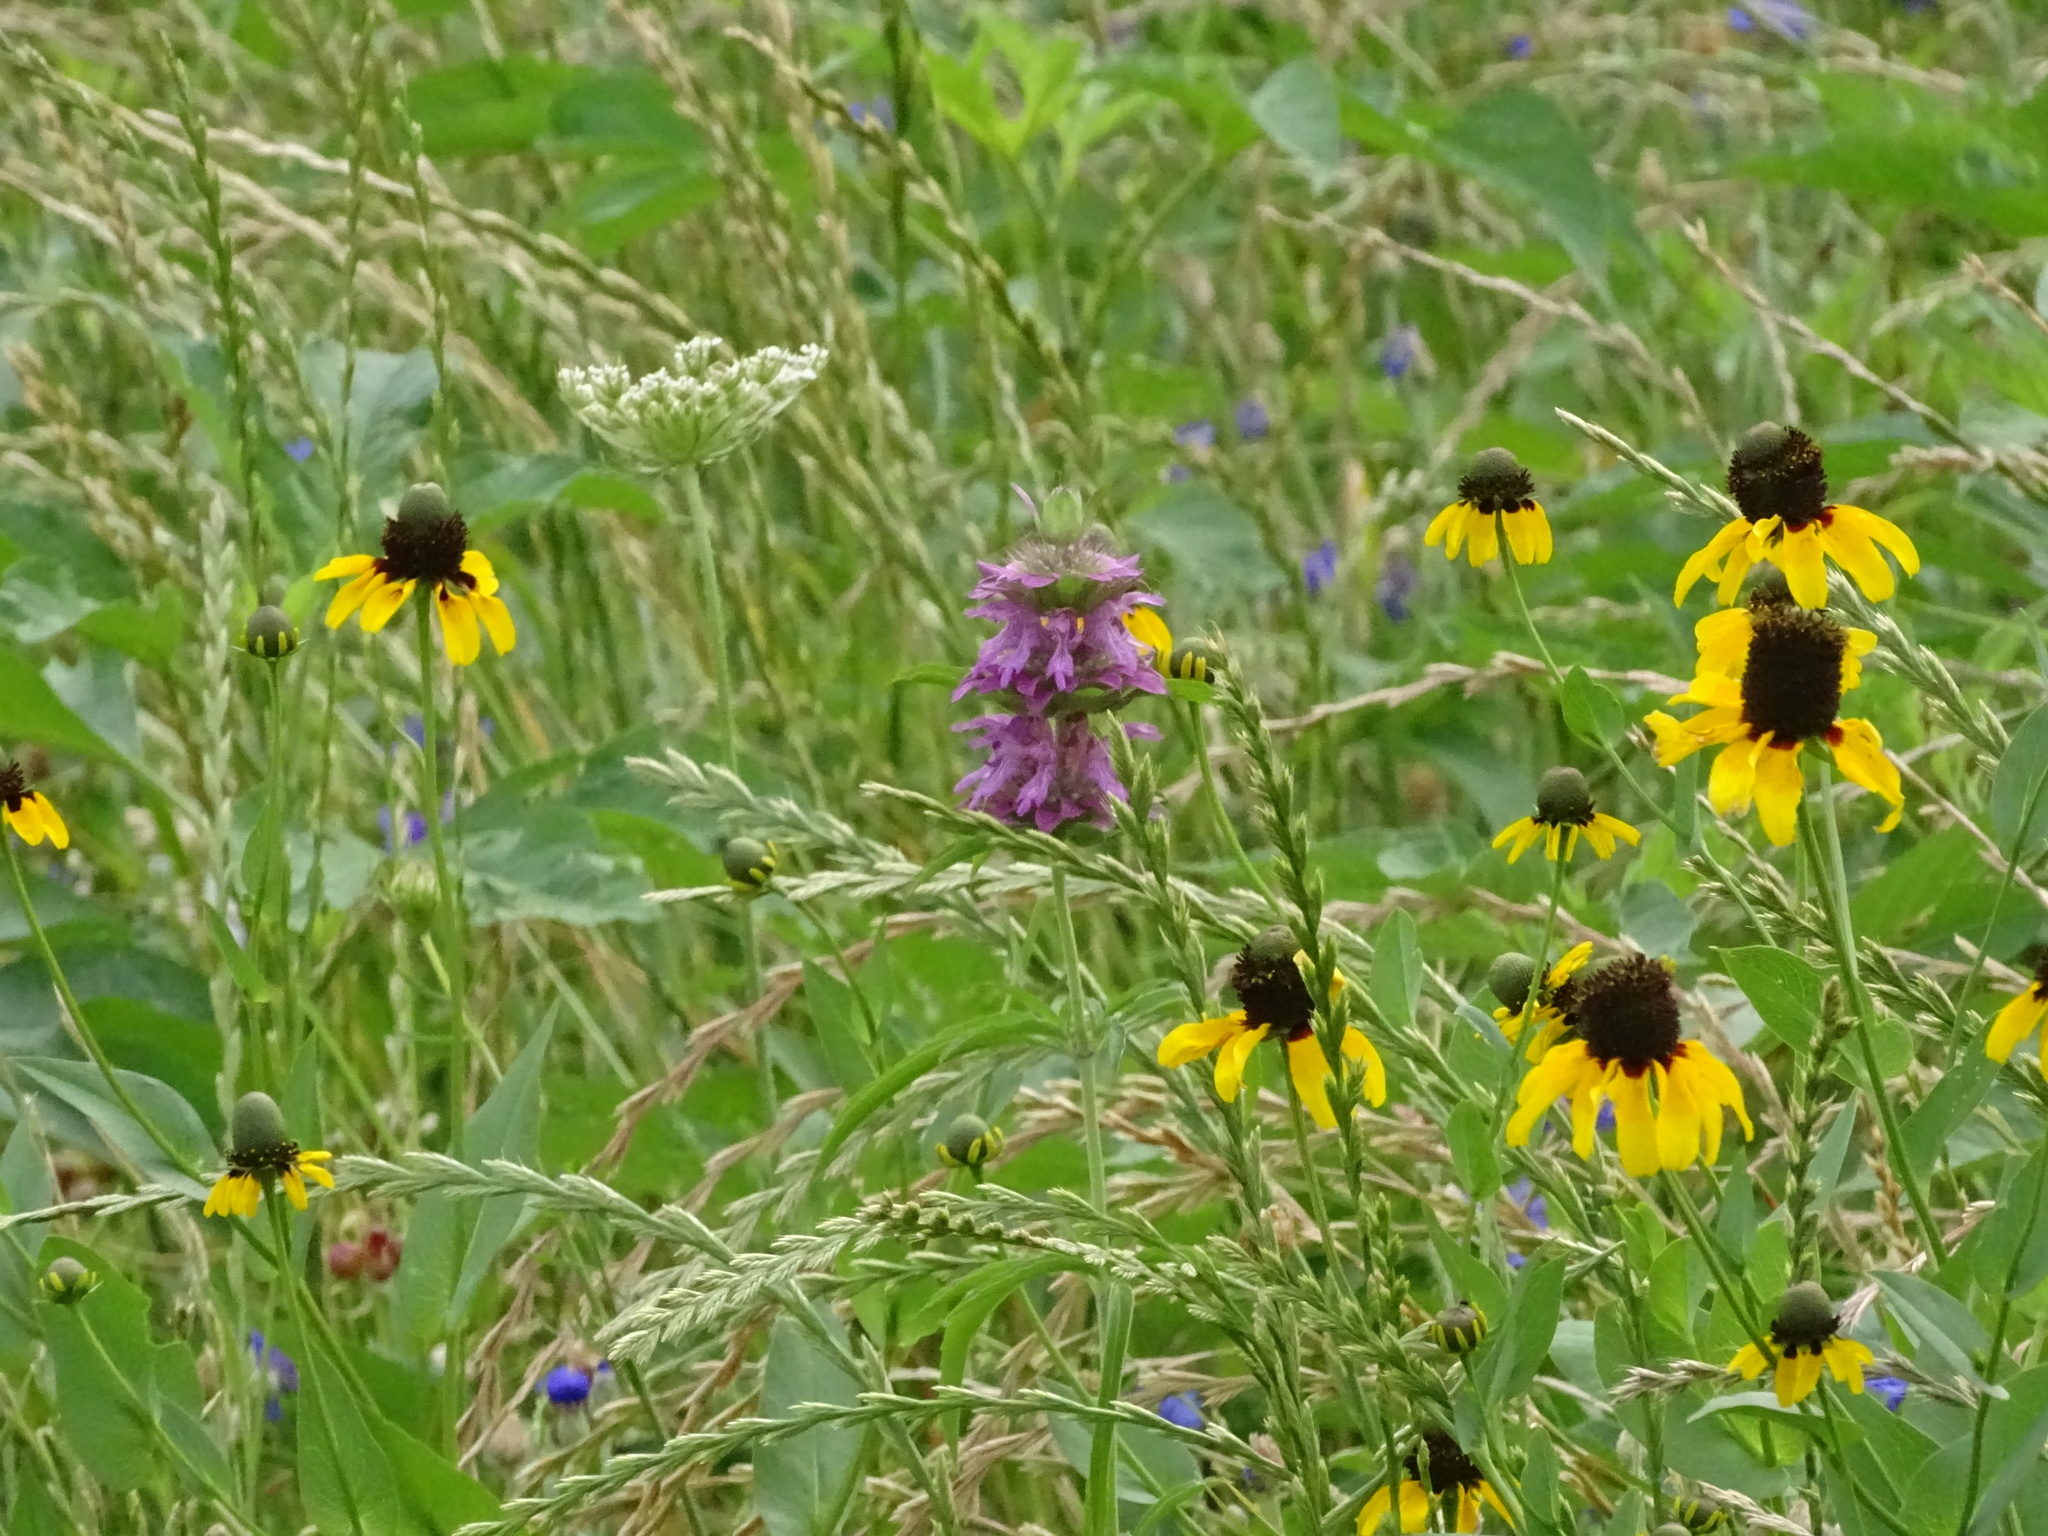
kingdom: Plantae
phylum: Tracheophyta
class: Magnoliopsida
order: Lamiales
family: Lamiaceae
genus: Monarda
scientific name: Monarda citriodora
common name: Lemon beebalm
